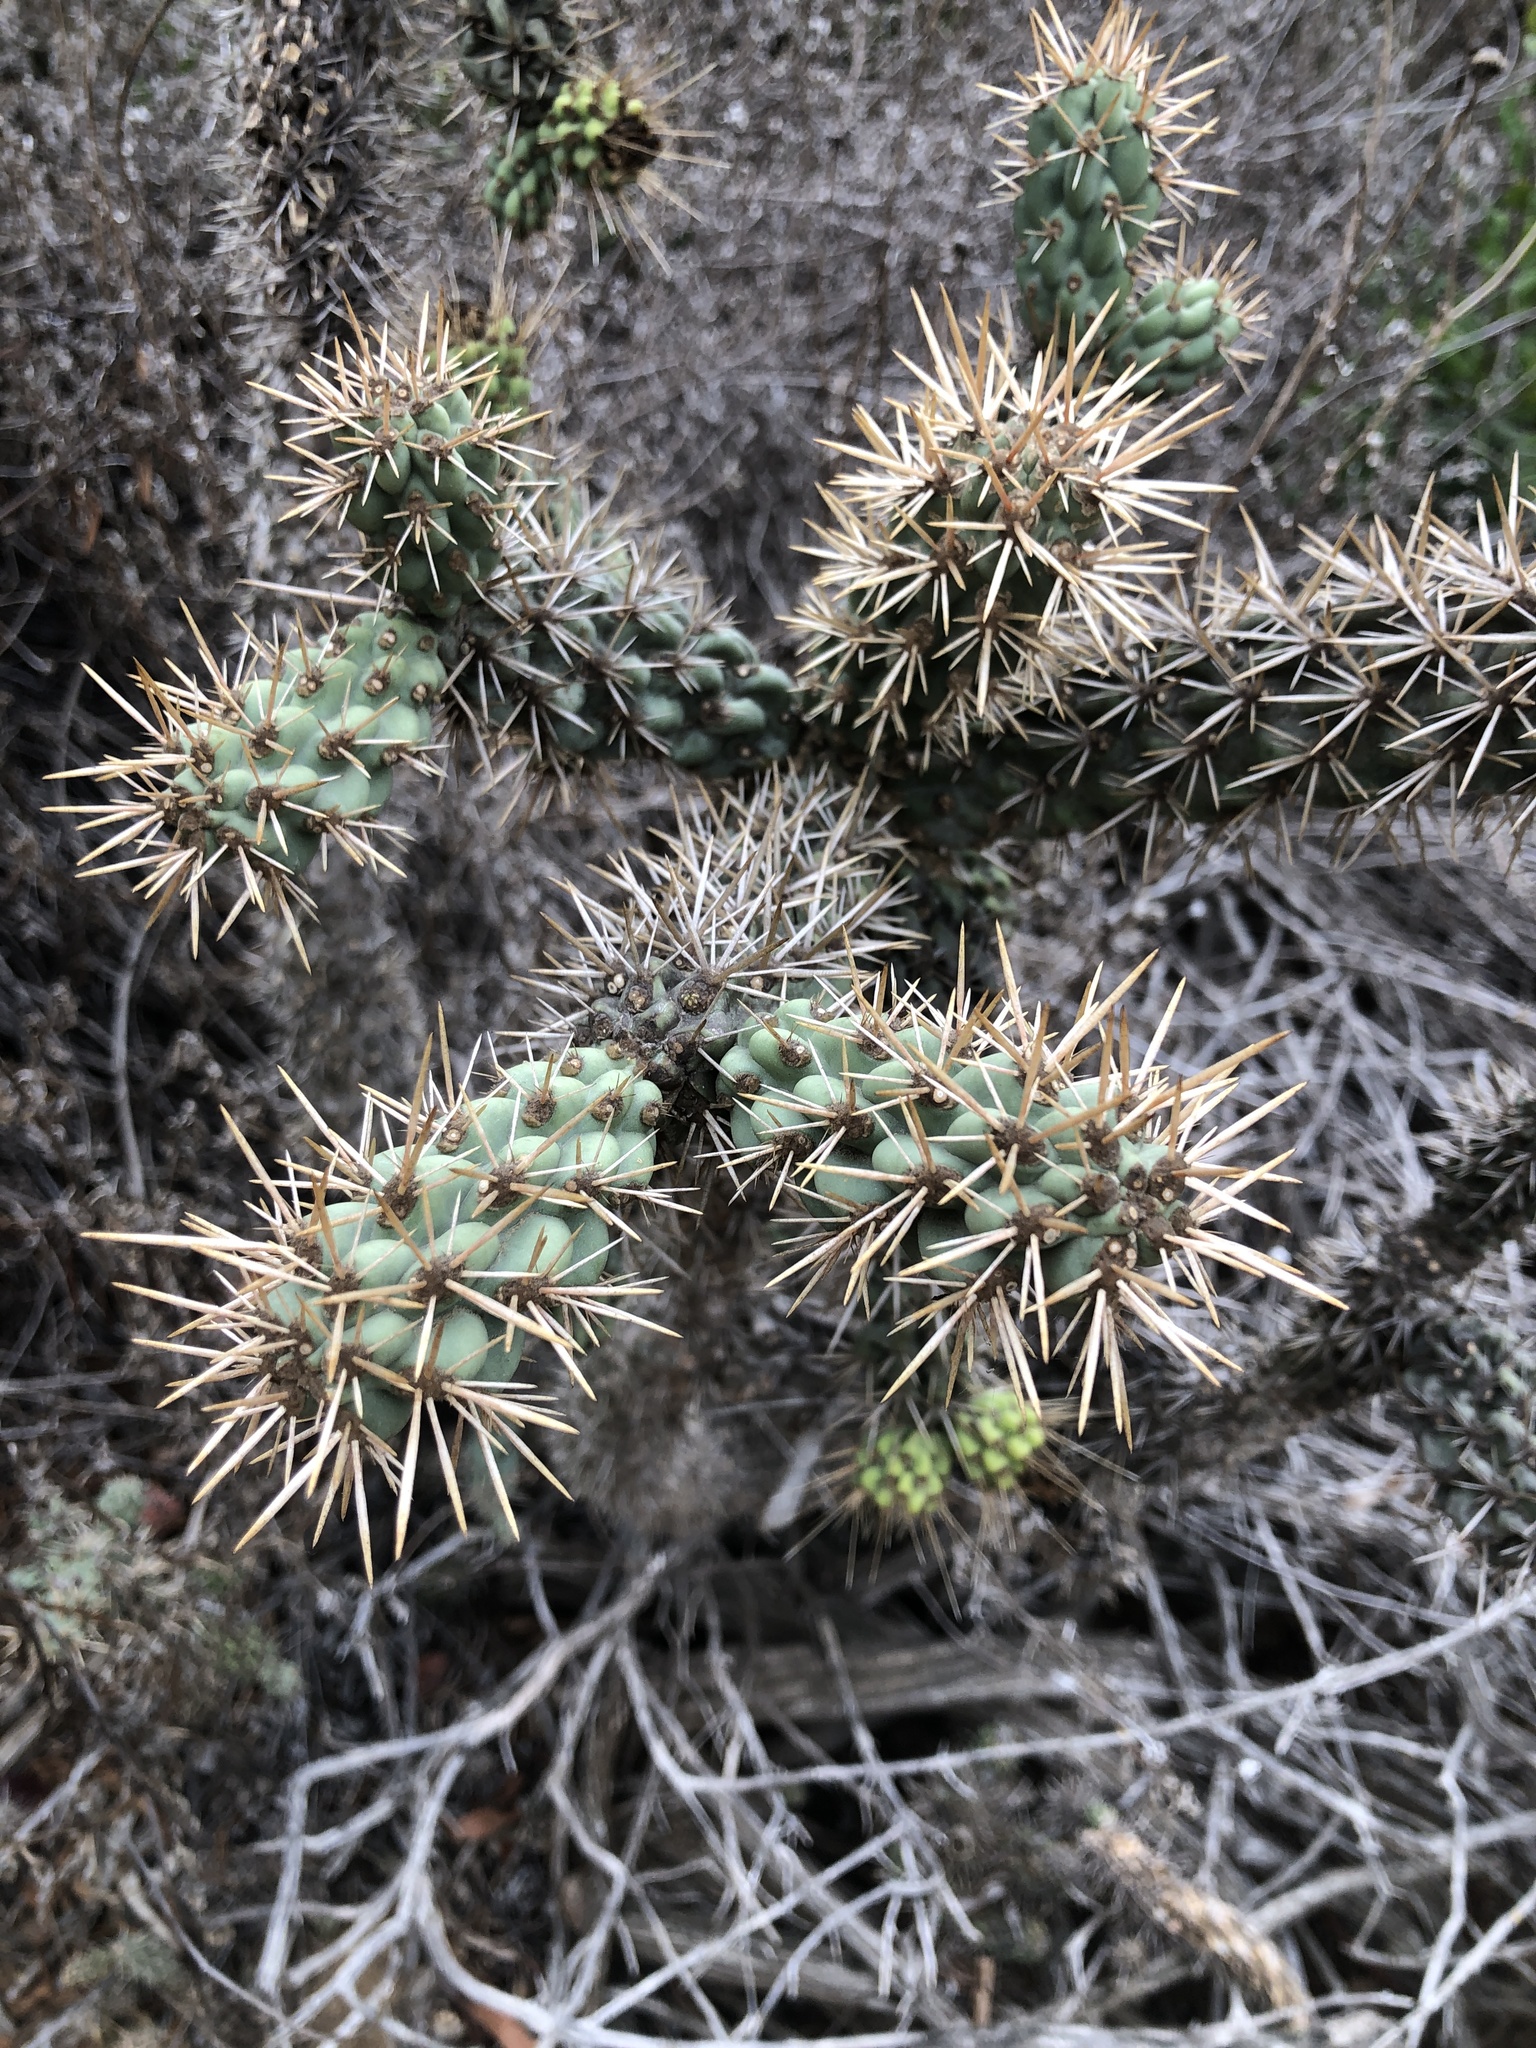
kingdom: Plantae
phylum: Tracheophyta
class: Magnoliopsida
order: Caryophyllales
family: Cactaceae
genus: Cylindropuntia
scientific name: Cylindropuntia prolifera
